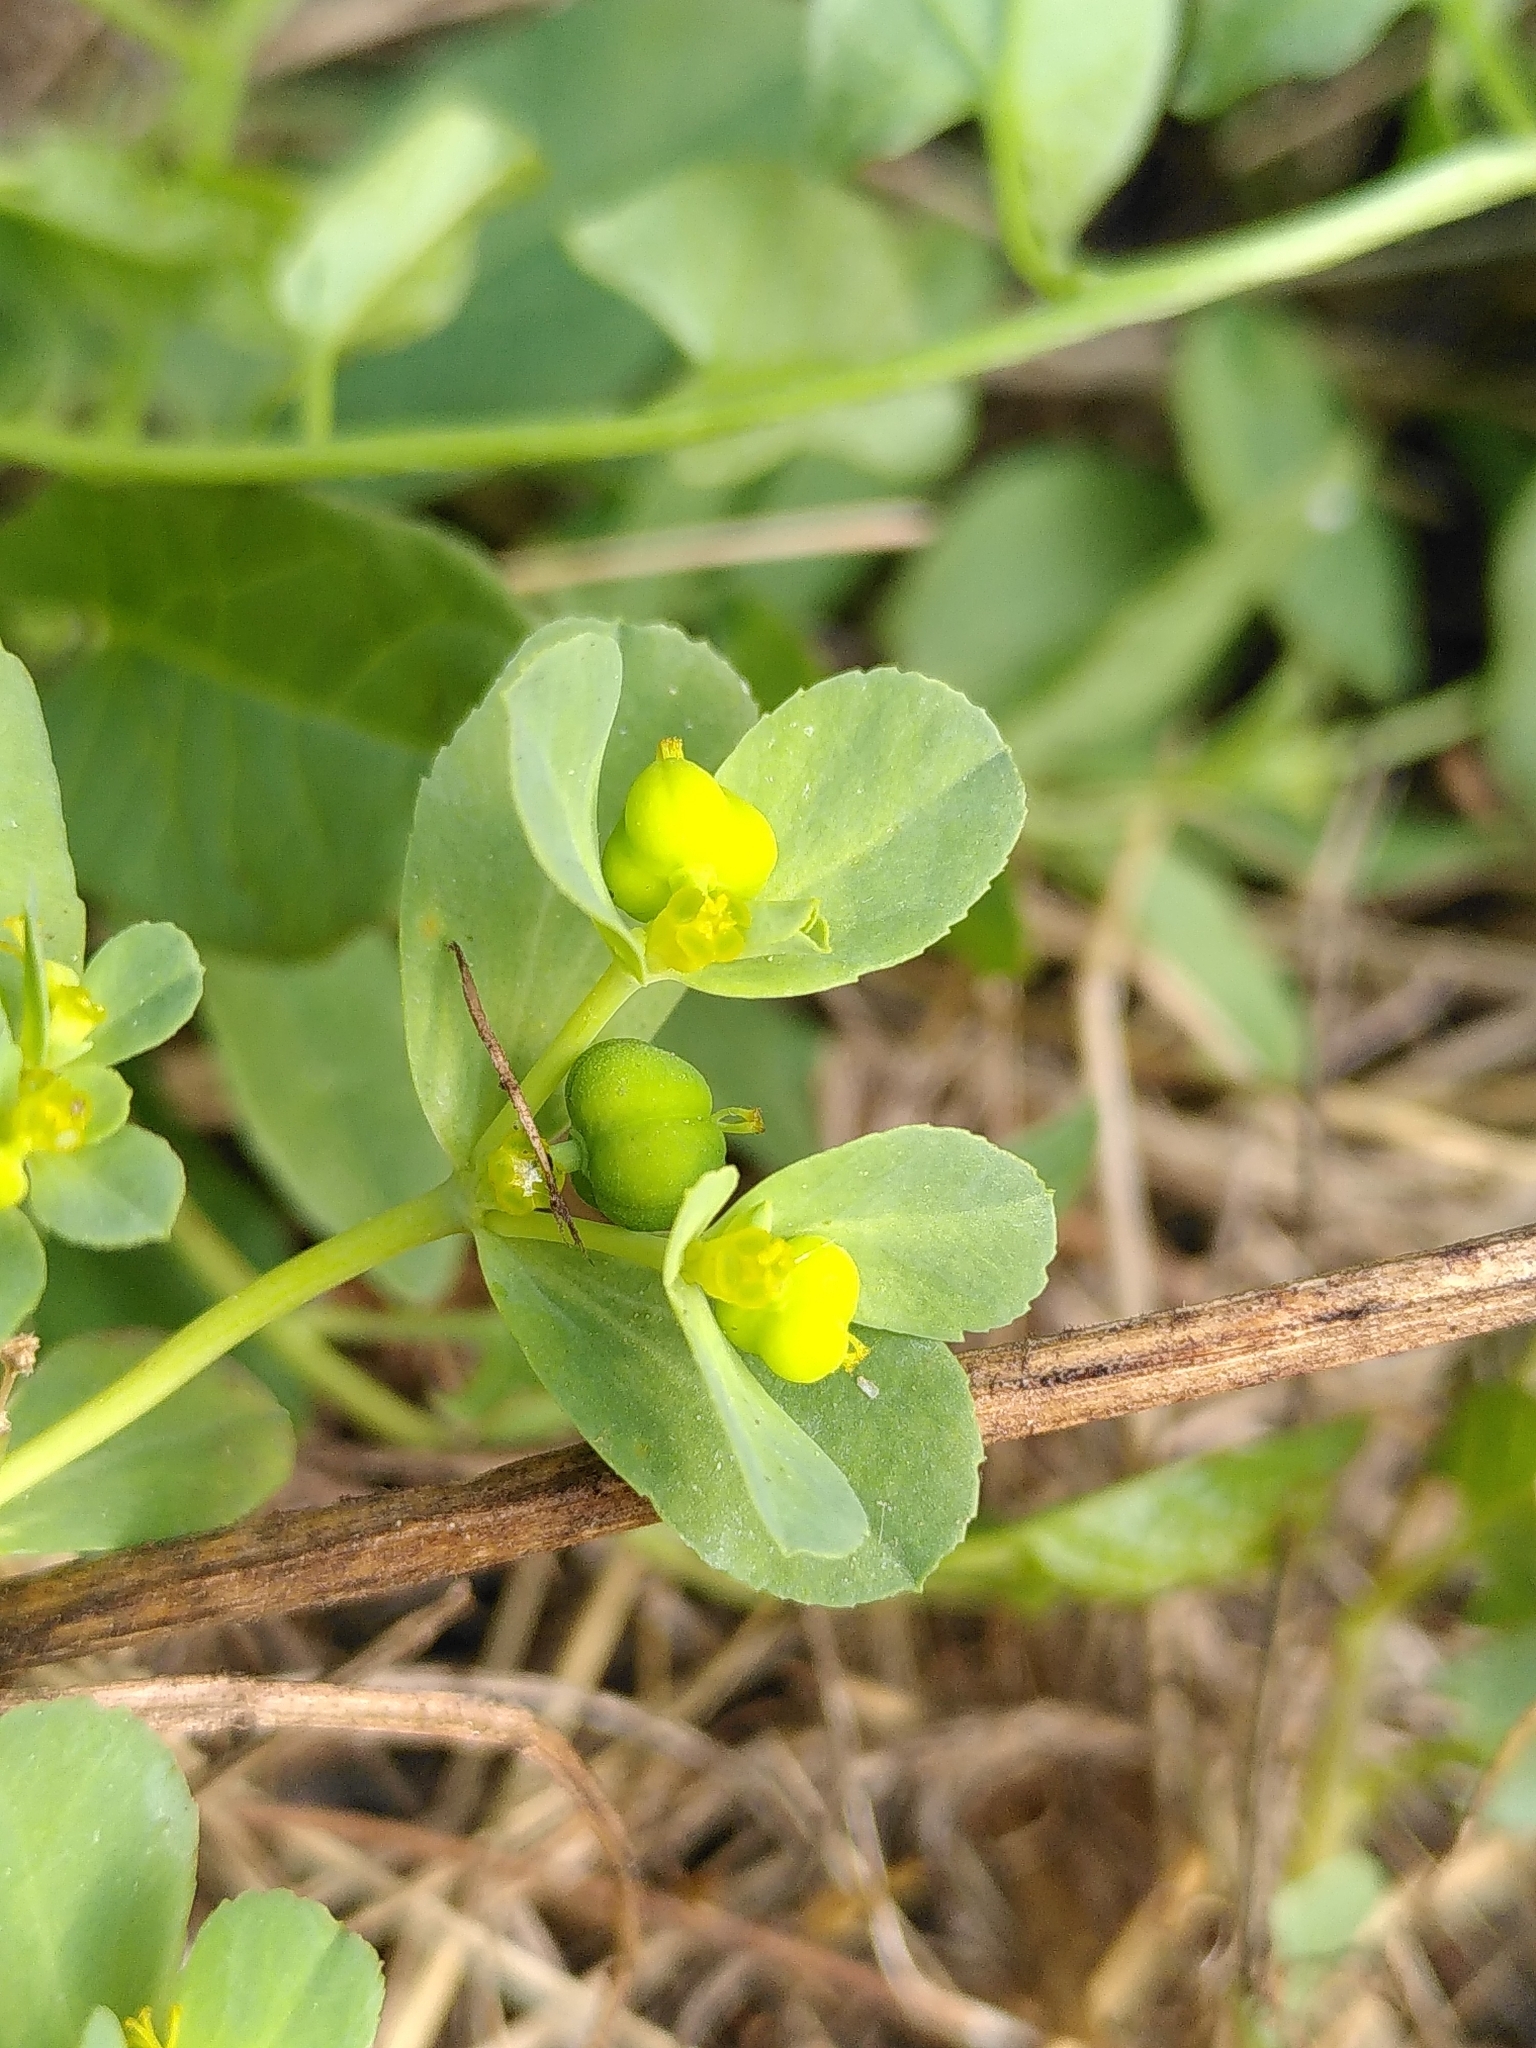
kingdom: Plantae
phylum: Tracheophyta
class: Magnoliopsida
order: Malpighiales
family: Euphorbiaceae
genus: Euphorbia
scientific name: Euphorbia helioscopia
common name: Sun spurge
